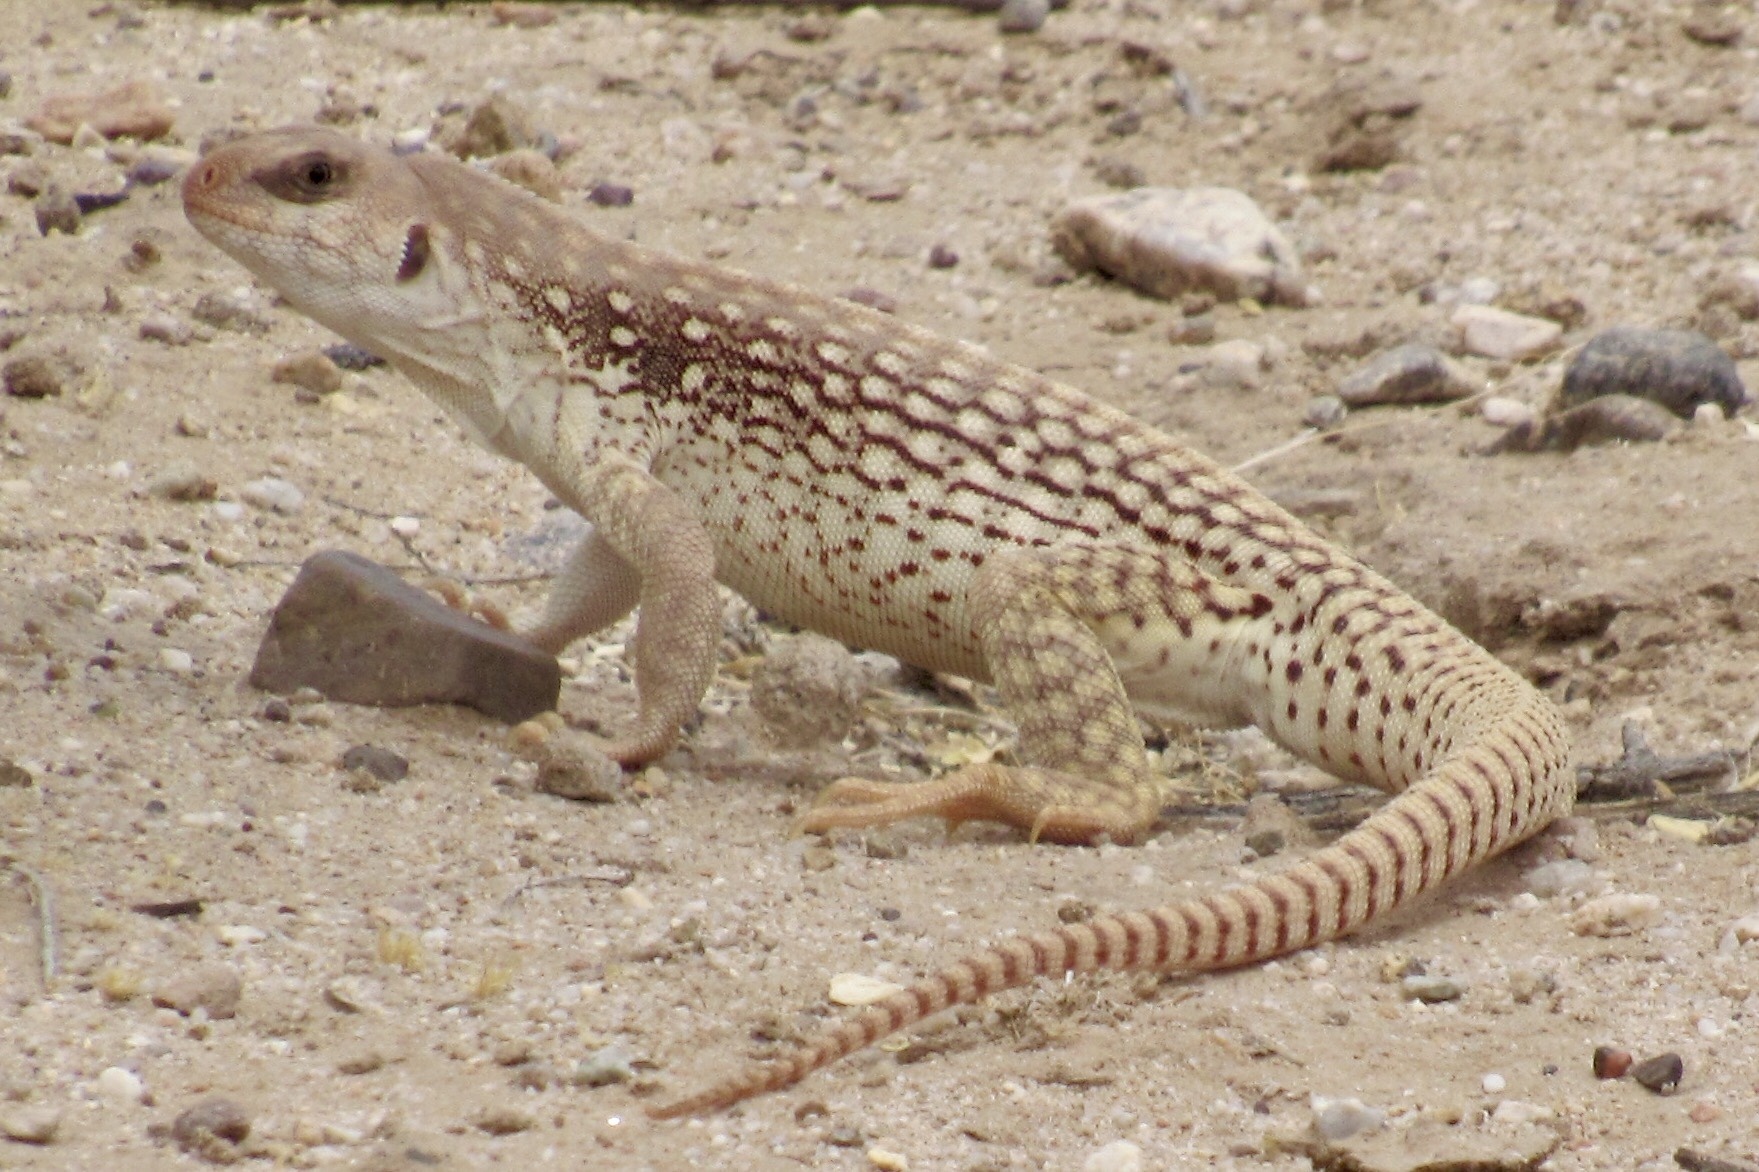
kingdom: Animalia
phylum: Chordata
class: Squamata
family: Iguanidae
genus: Dipsosaurus
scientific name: Dipsosaurus dorsalis
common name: Desert iguana
